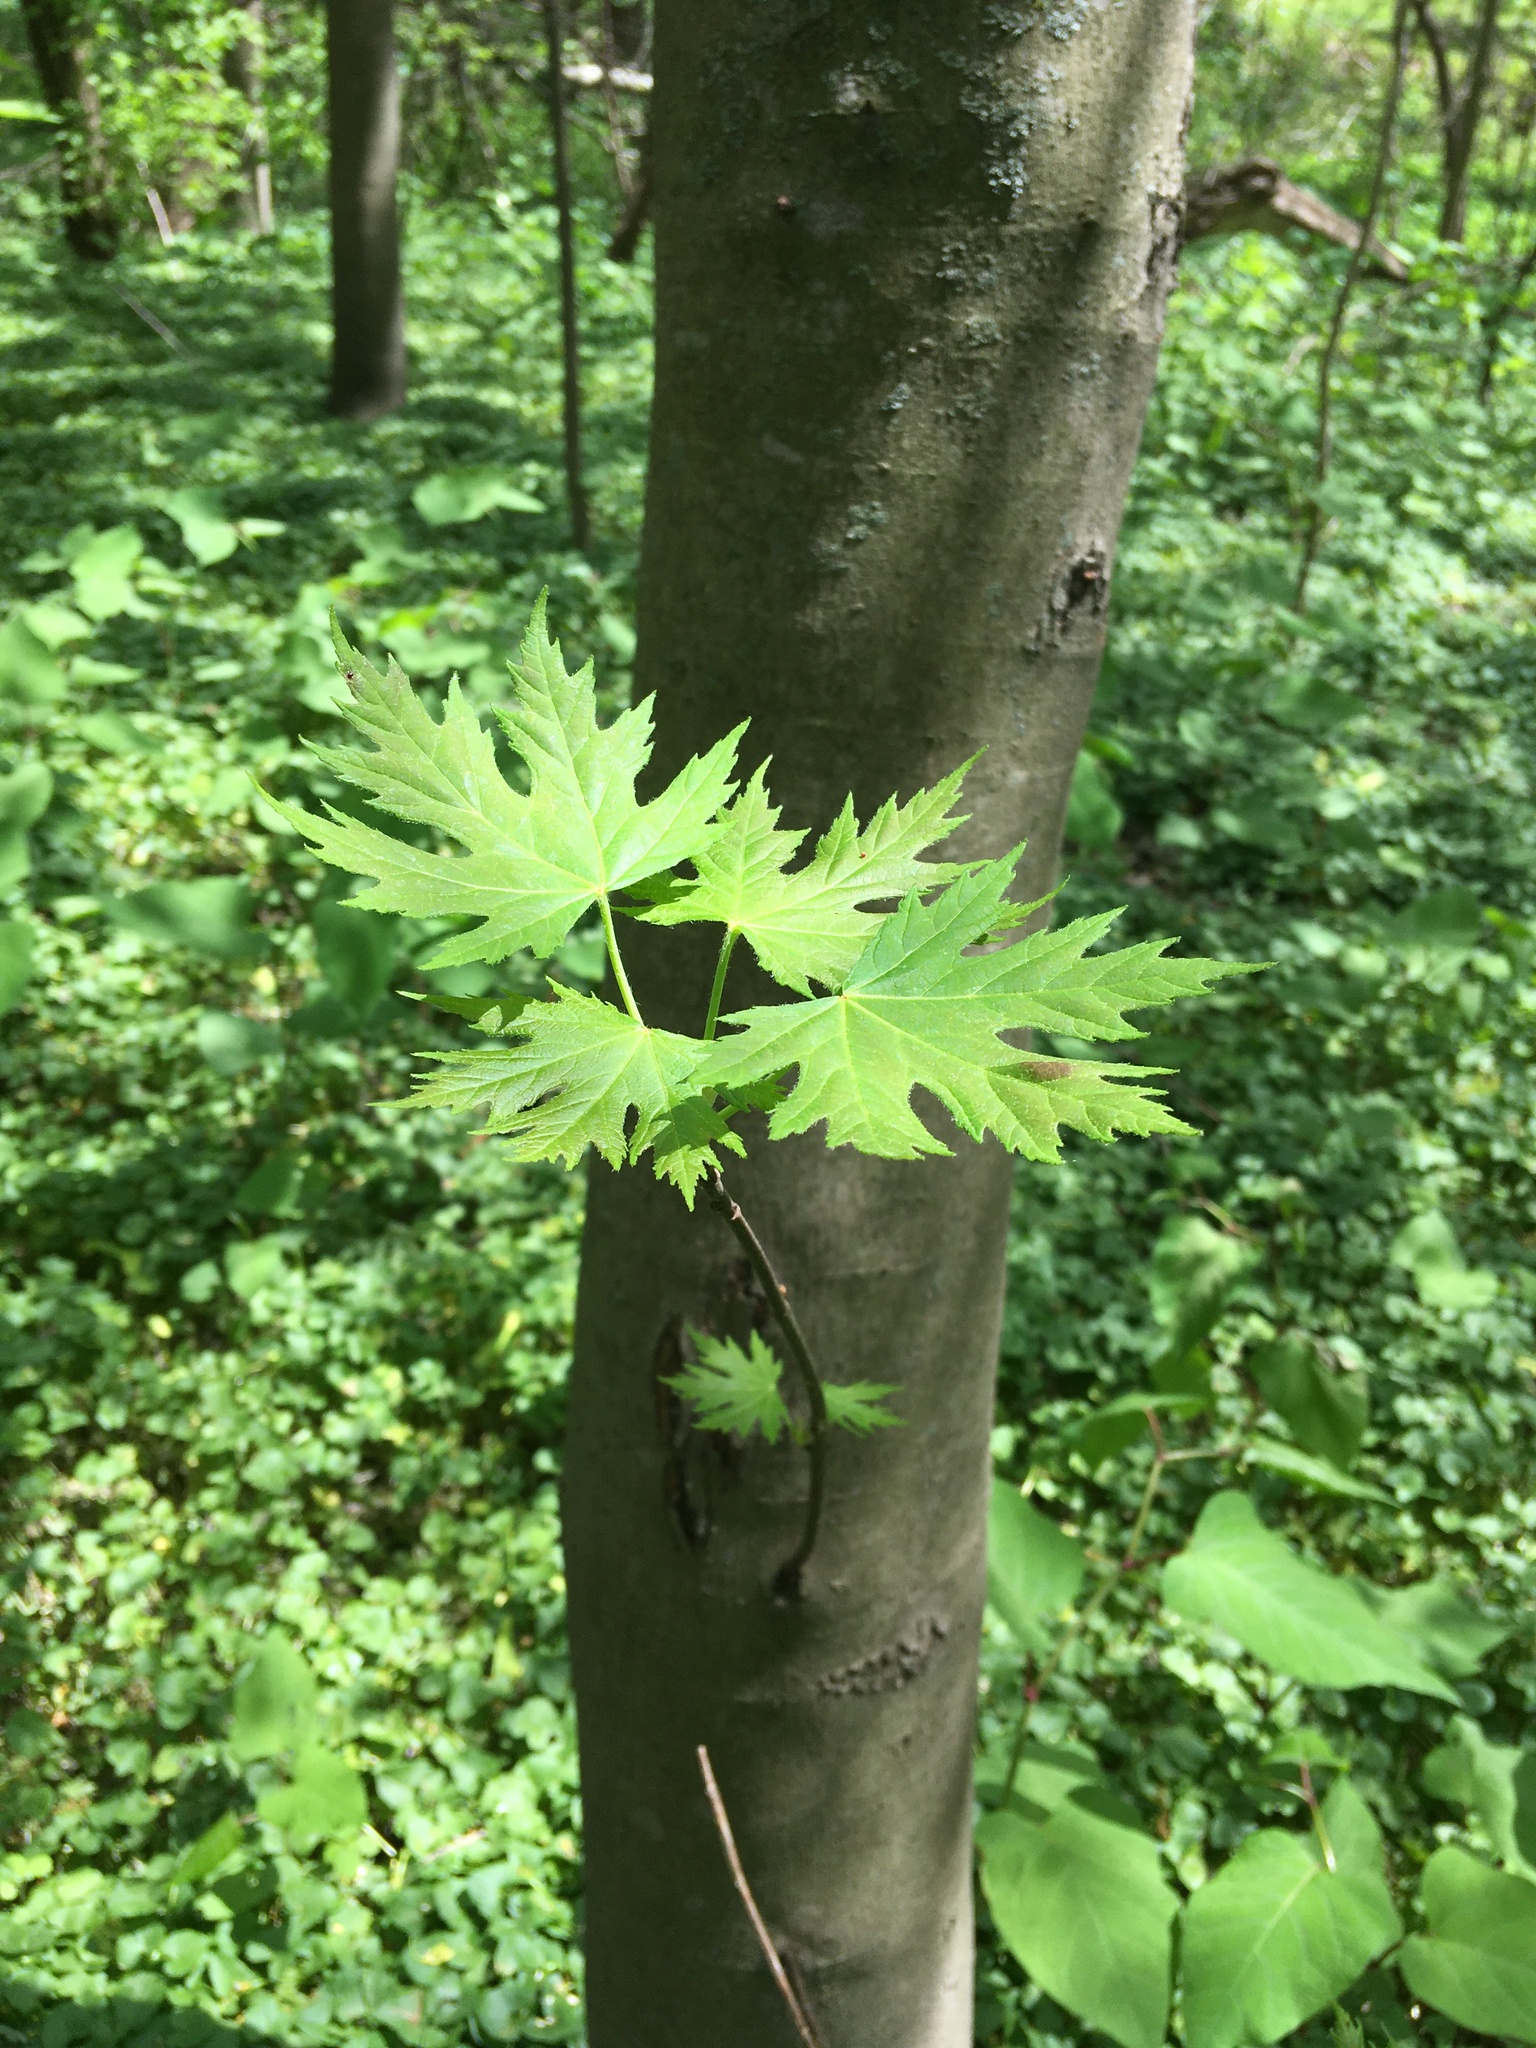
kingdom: Plantae
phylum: Tracheophyta
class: Magnoliopsida
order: Sapindales
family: Sapindaceae
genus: Acer
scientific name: Acer saccharinum
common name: Silver maple
